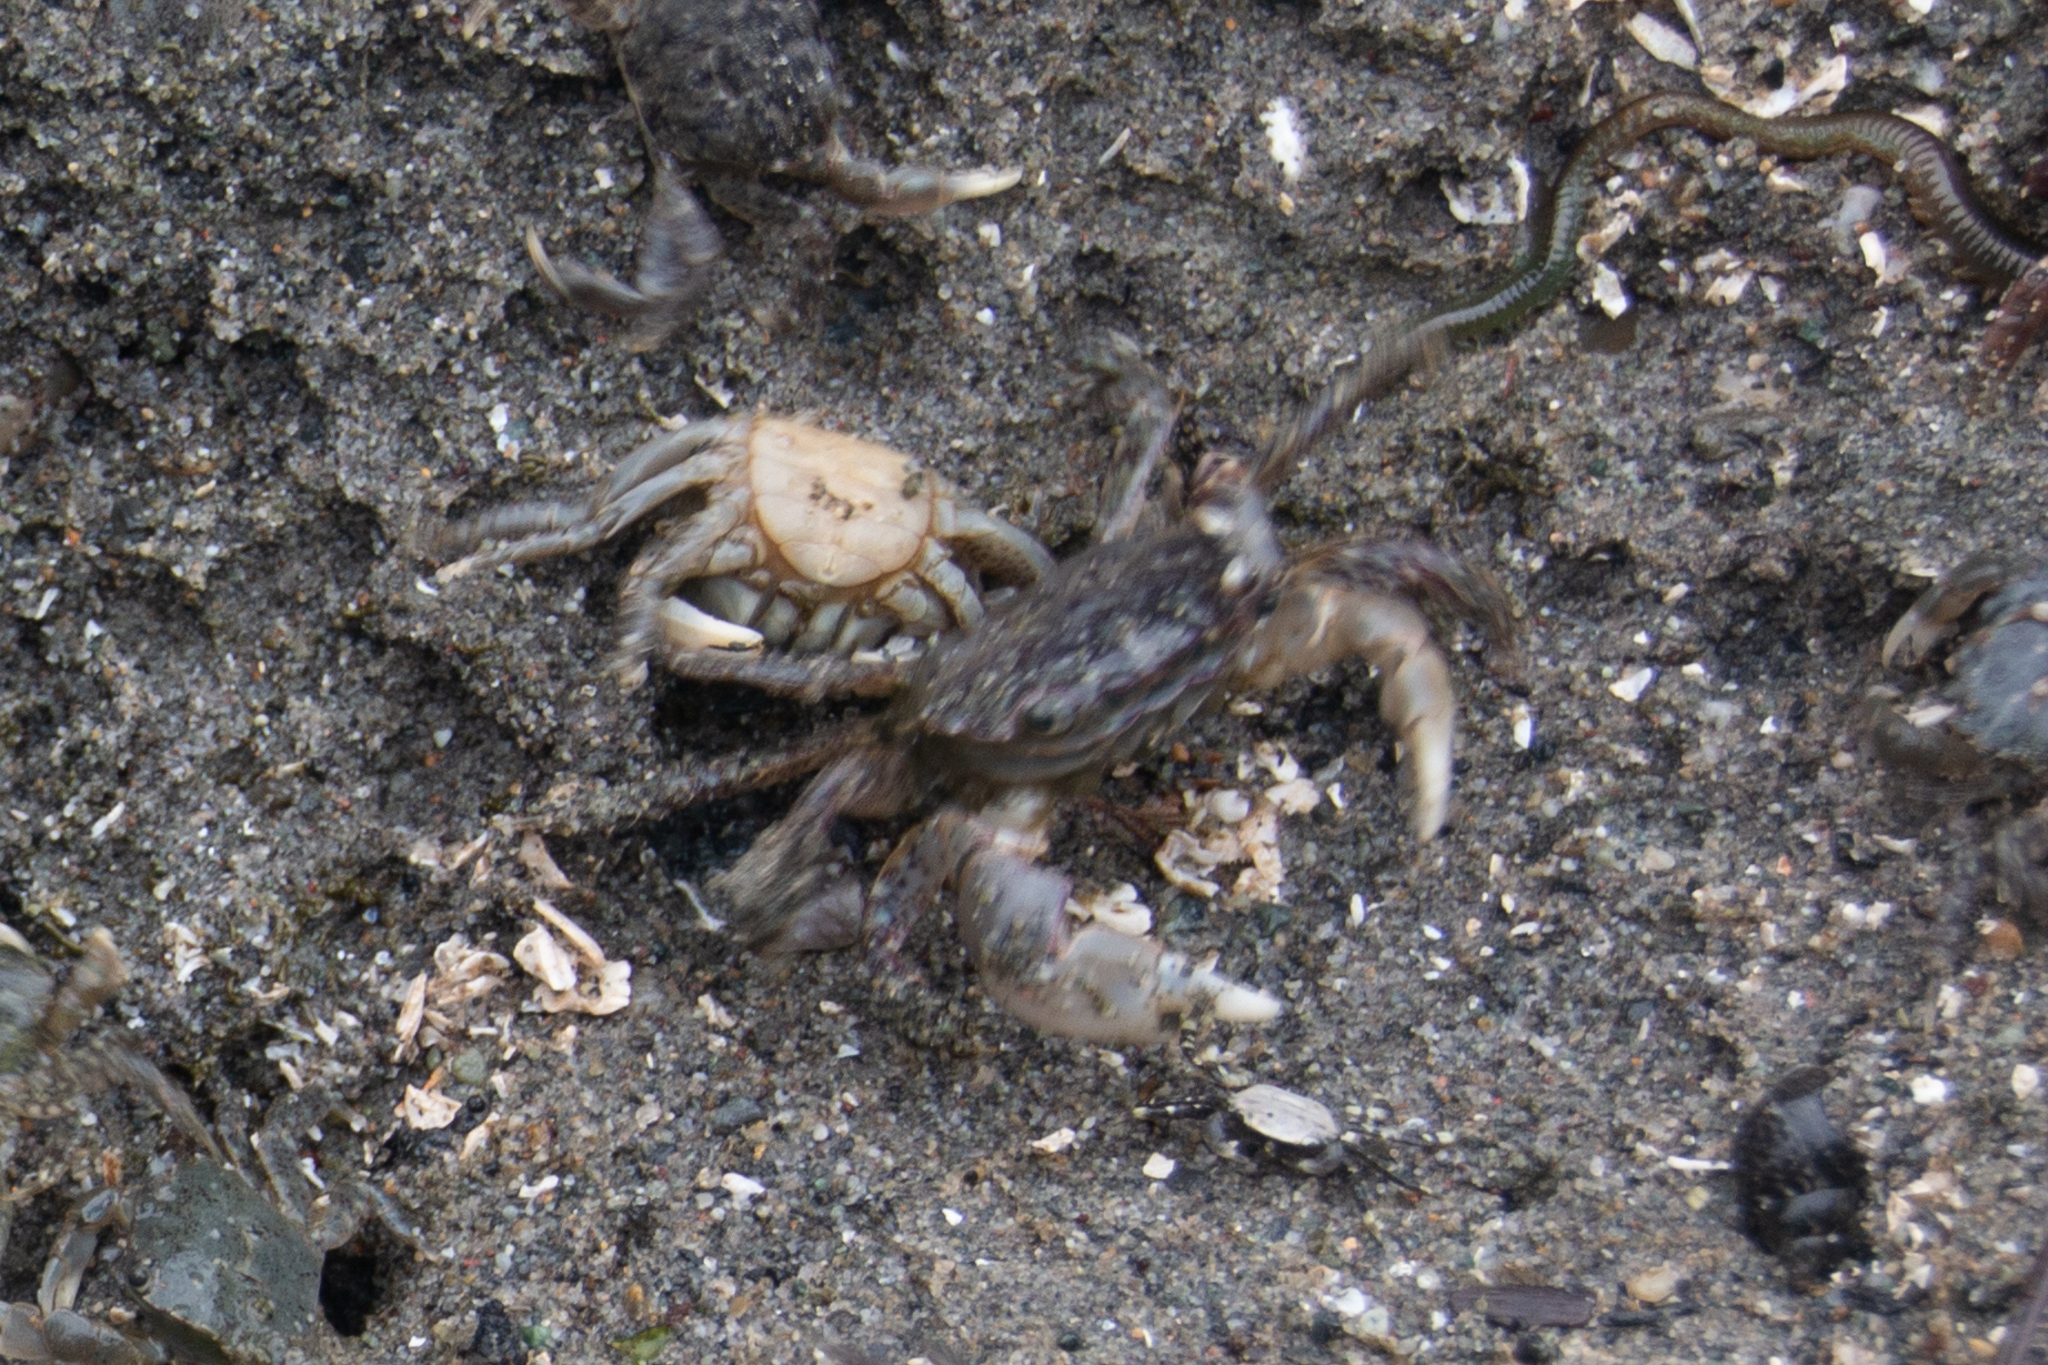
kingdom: Animalia
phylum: Arthropoda
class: Malacostraca
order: Decapoda
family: Varunidae
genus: Hemigrapsus
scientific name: Hemigrapsus oregonensis
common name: Yellow shore crab
